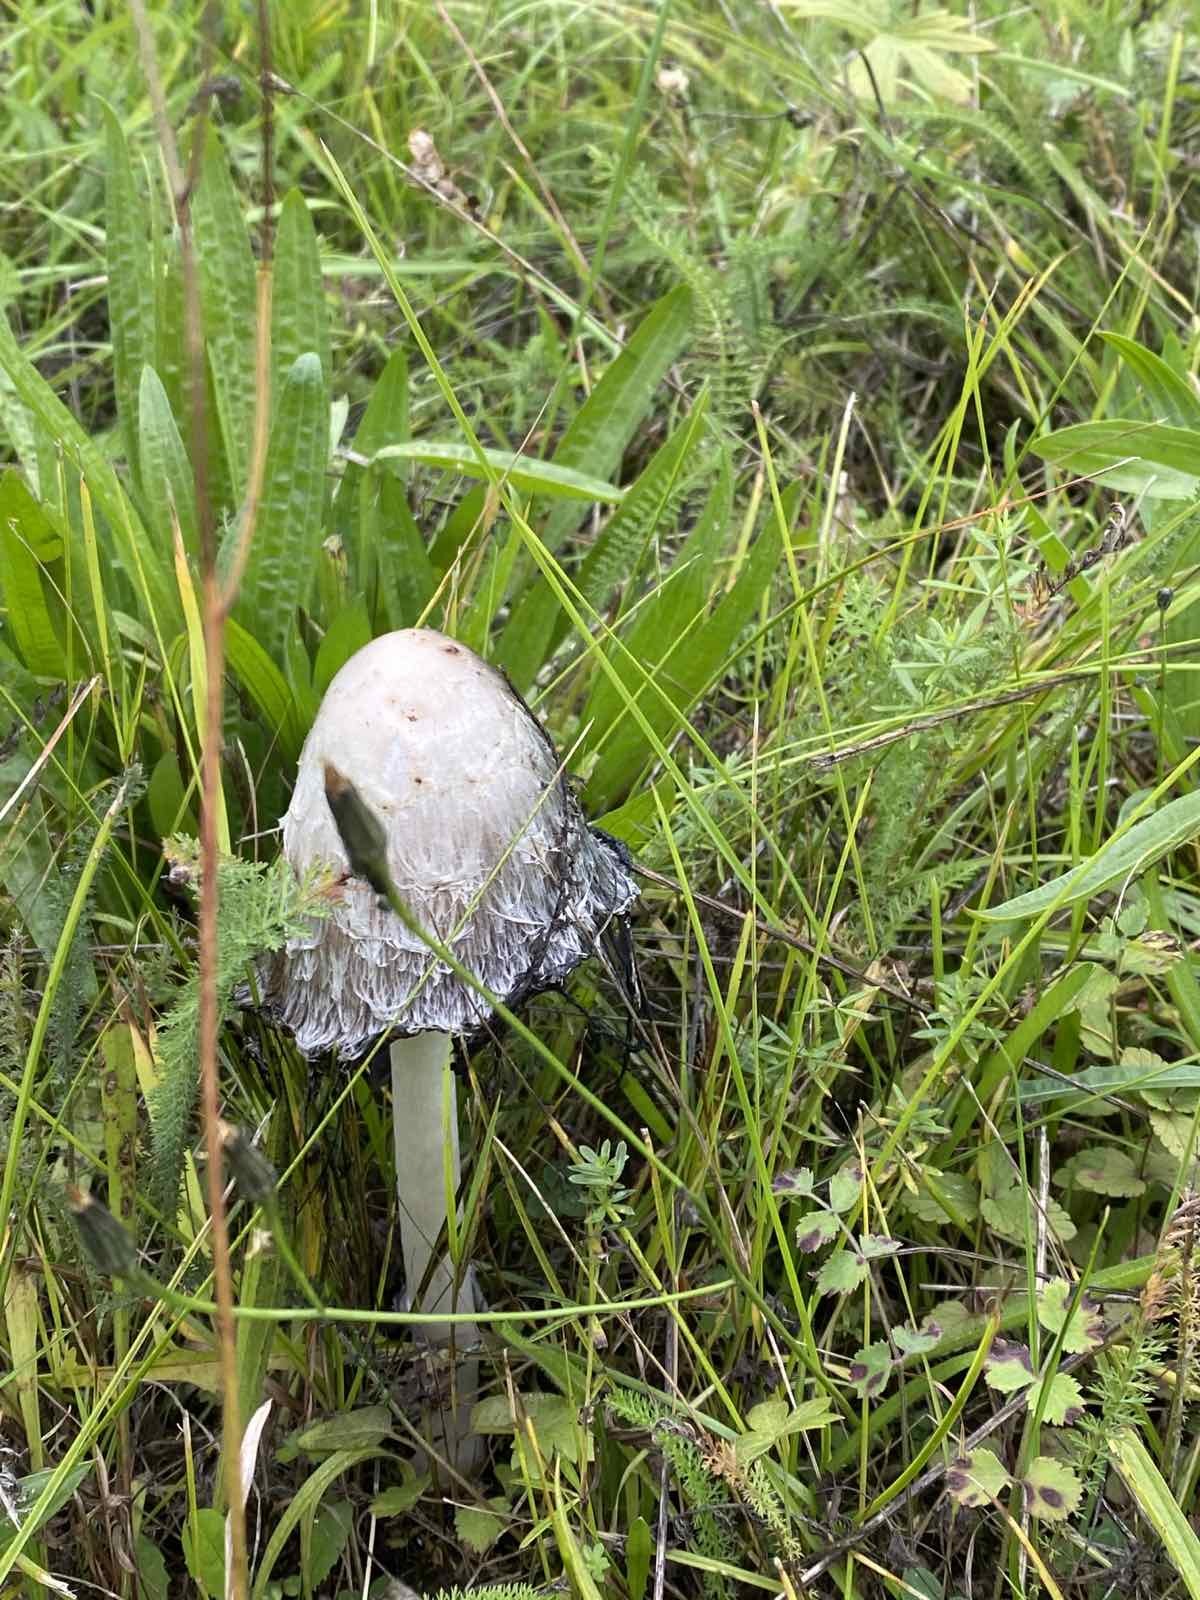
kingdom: Fungi
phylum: Basidiomycota
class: Agaricomycetes
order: Agaricales
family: Agaricaceae
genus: Coprinus
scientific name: Coprinus comatus
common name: Lawyer's wig
